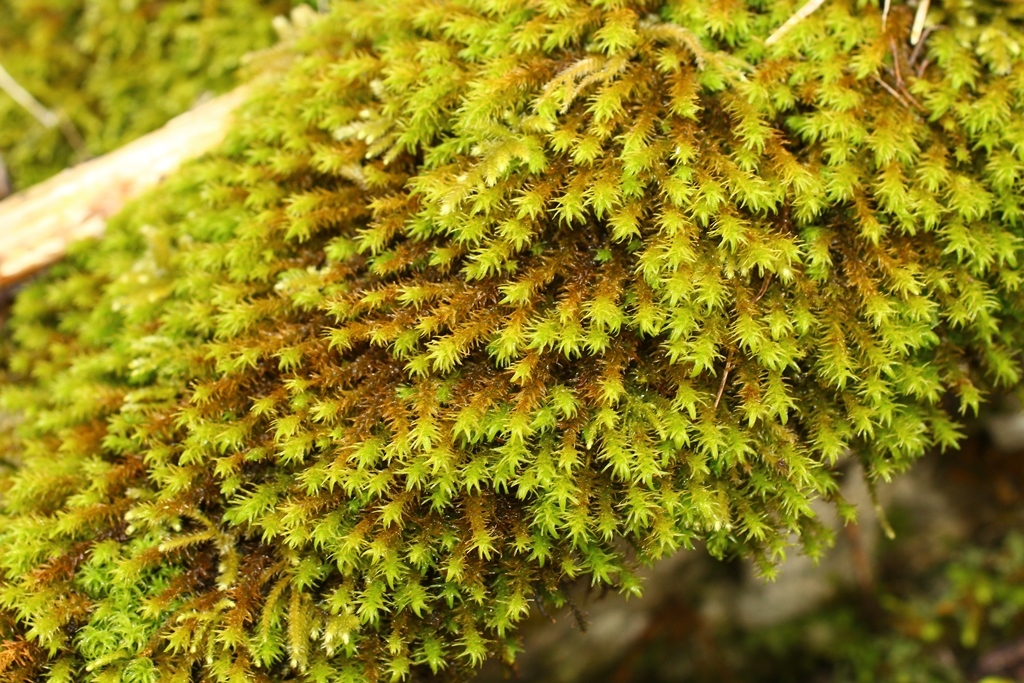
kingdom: Plantae
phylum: Bryophyta
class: Bryopsida
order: Hypnales
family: Anomodontaceae
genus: Anomodon
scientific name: Anomodon viticulosus
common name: Tall anomodon
